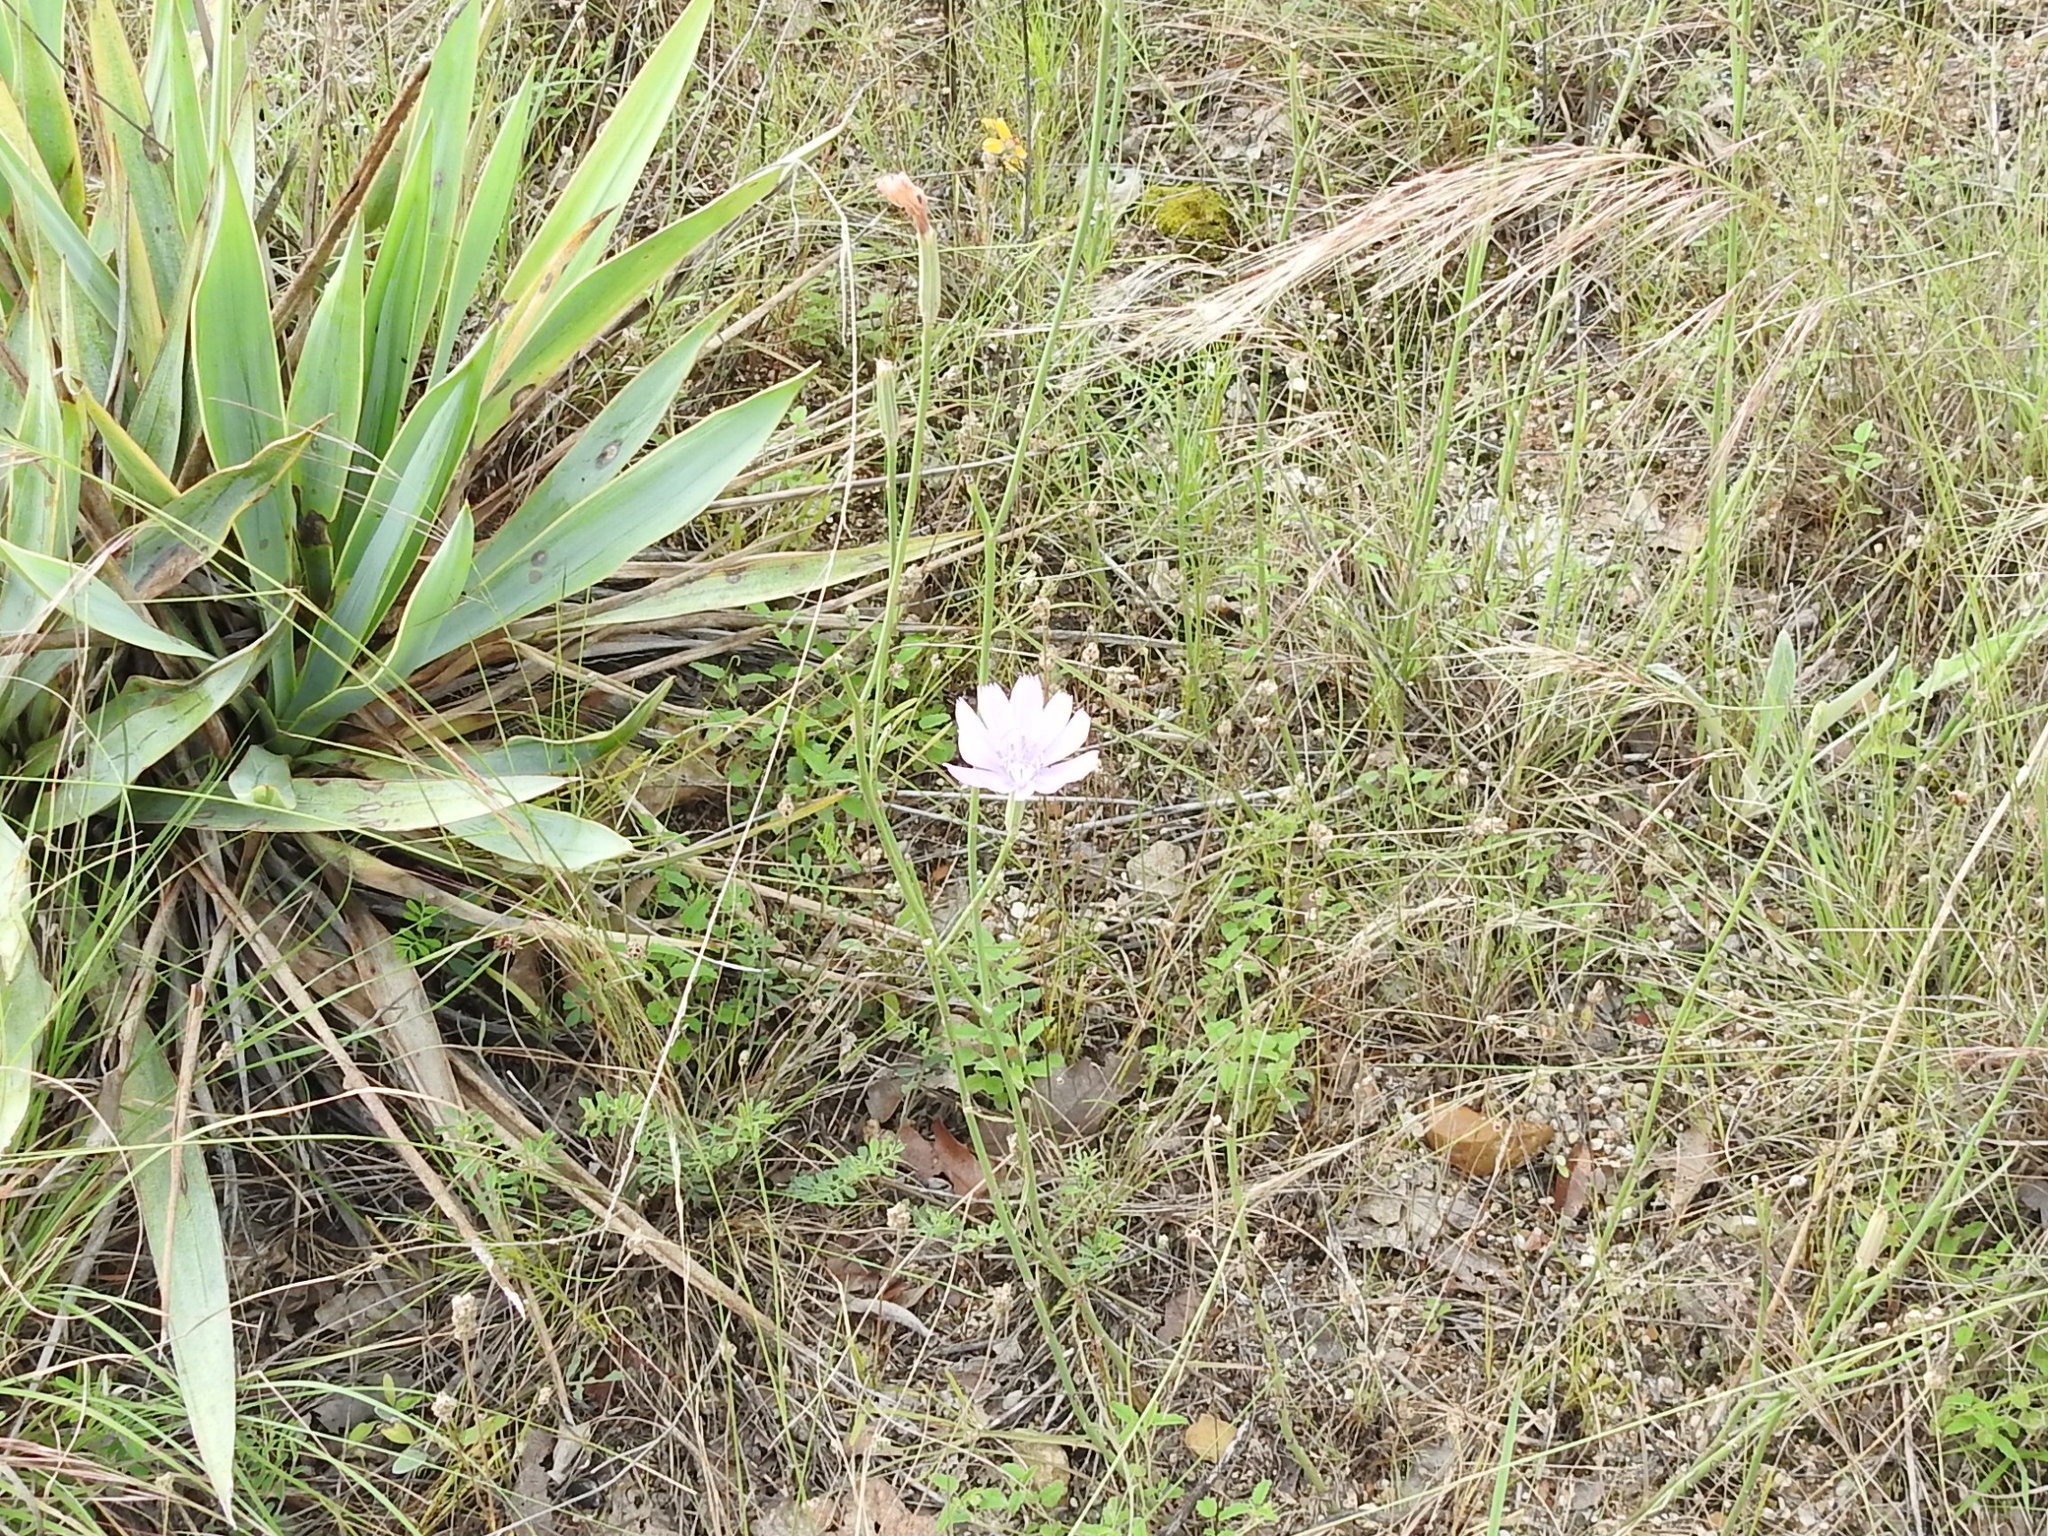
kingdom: Plantae
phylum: Tracheophyta
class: Magnoliopsida
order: Asterales
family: Asteraceae
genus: Lygodesmia
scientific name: Lygodesmia texana
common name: Texas skeleton-plant
